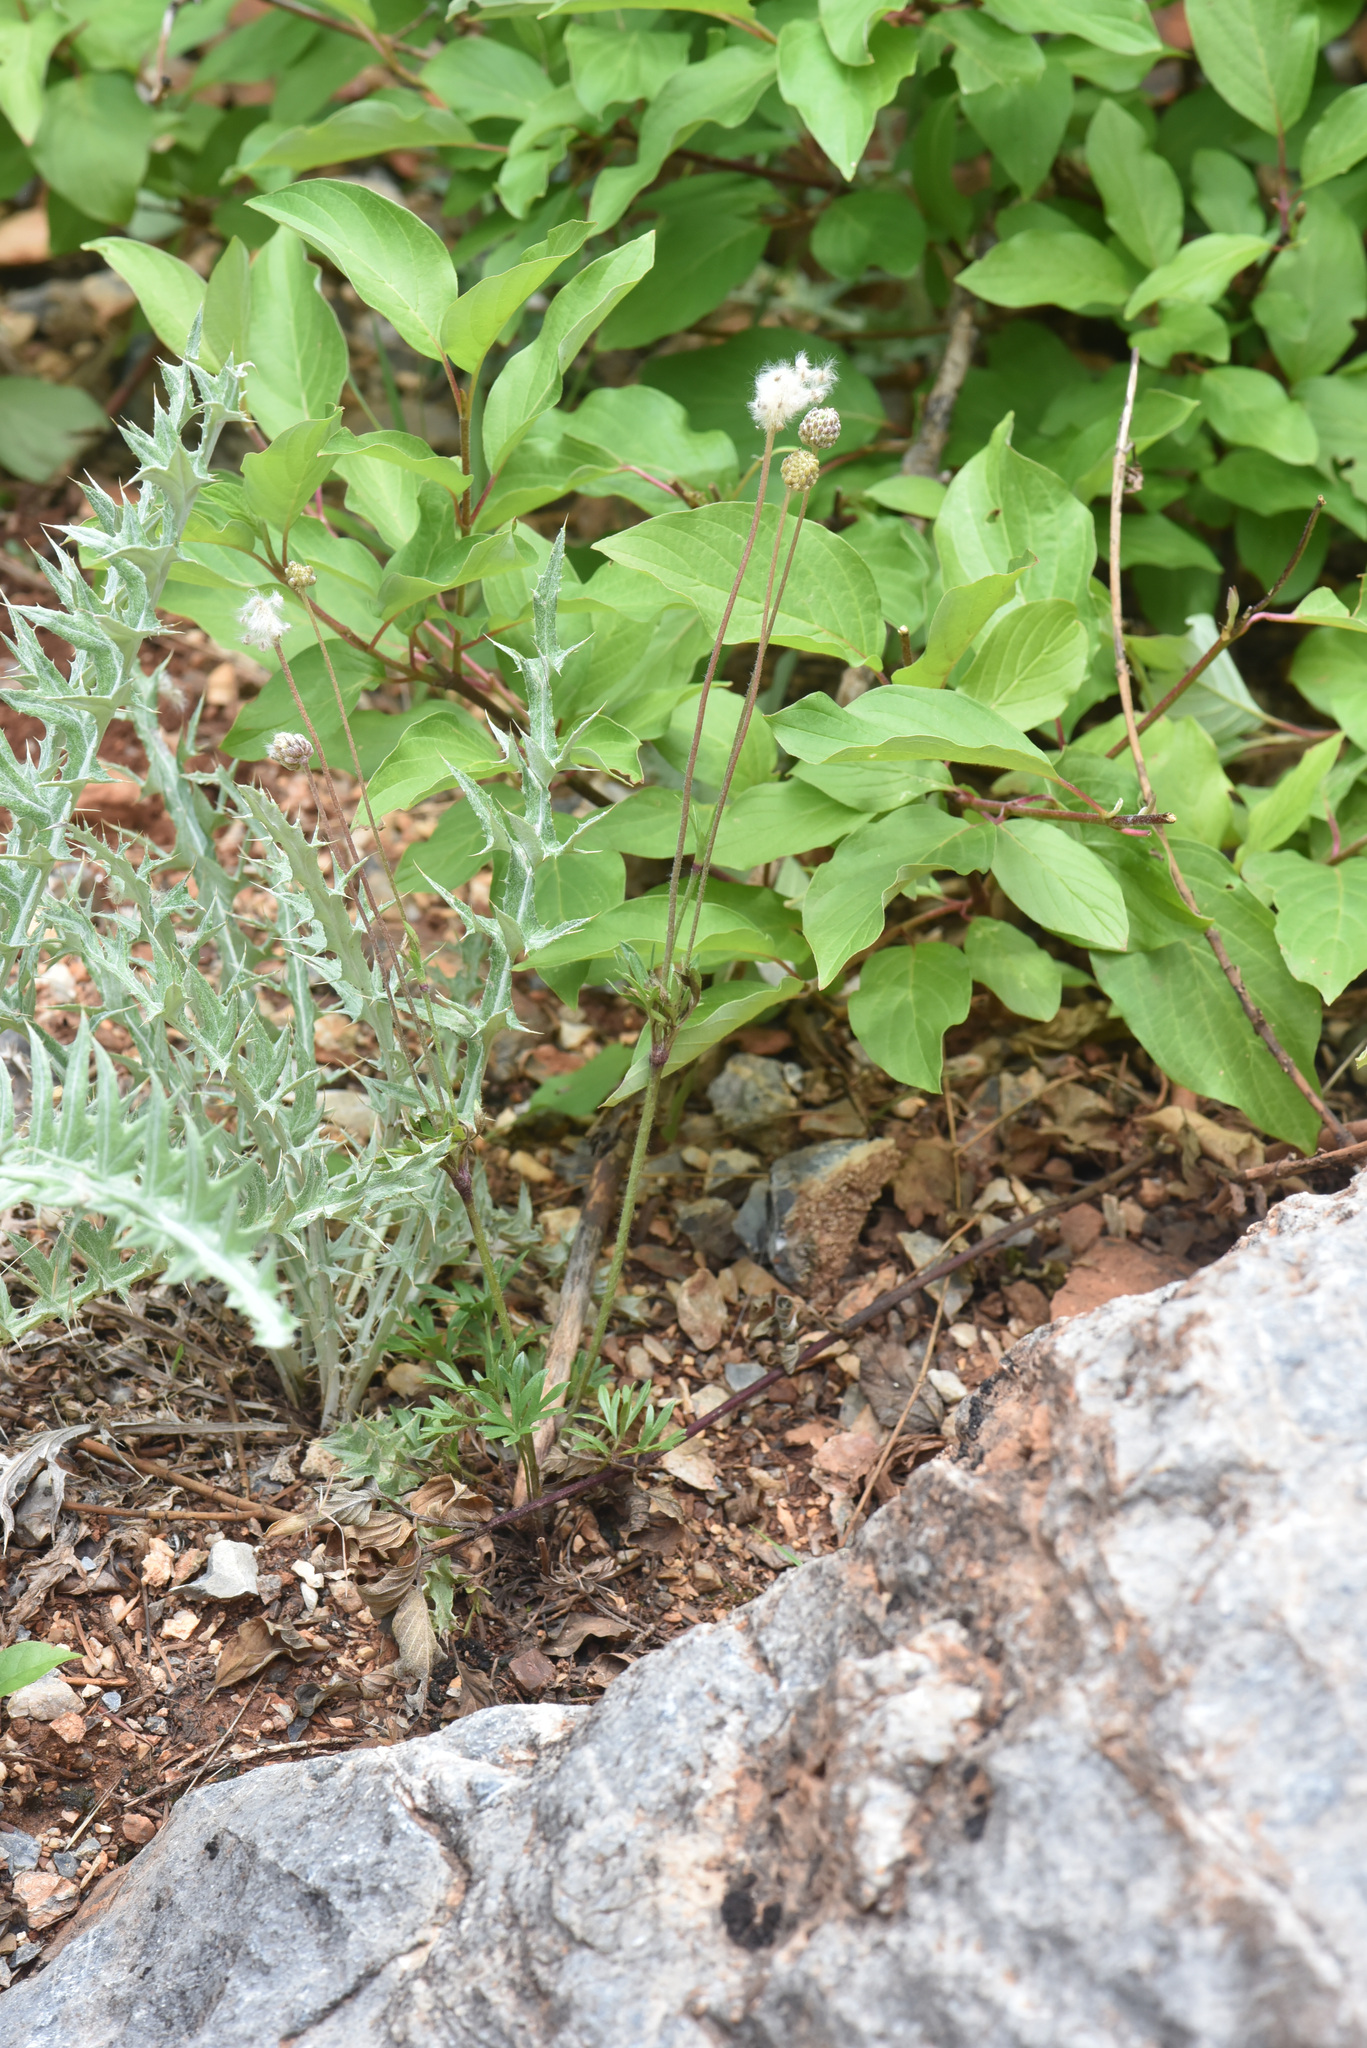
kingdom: Plantae
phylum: Tracheophyta
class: Magnoliopsida
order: Ranunculales
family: Ranunculaceae
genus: Anemone
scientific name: Anemone multifida
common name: Bird's-foot anemone
